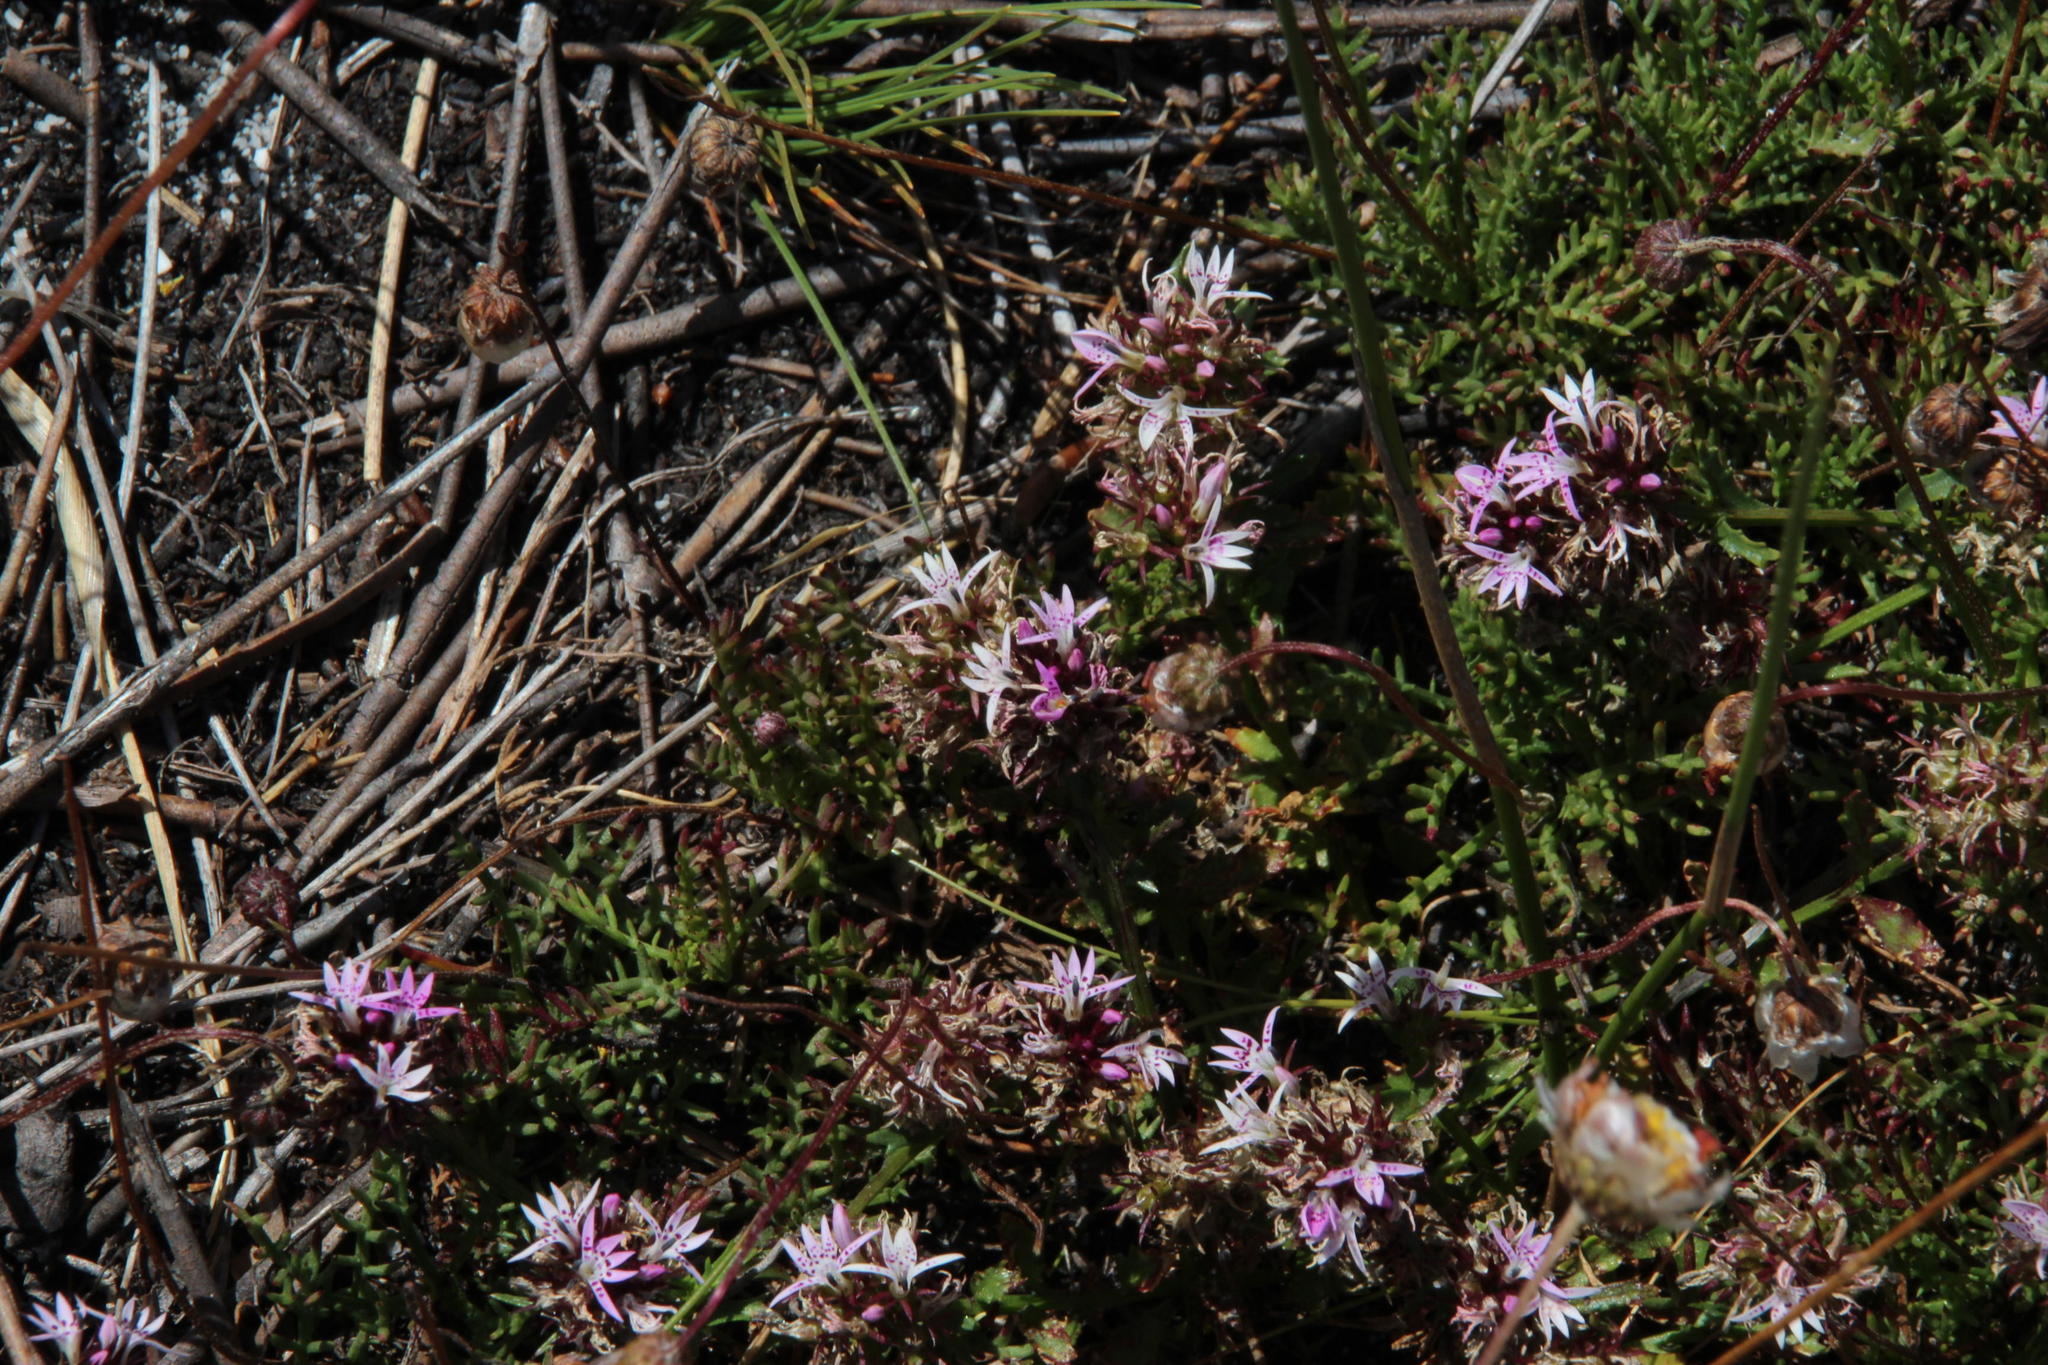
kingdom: Plantae
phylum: Tracheophyta
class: Magnoliopsida
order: Asterales
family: Campanulaceae
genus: Lobelia
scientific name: Lobelia jasionoides
